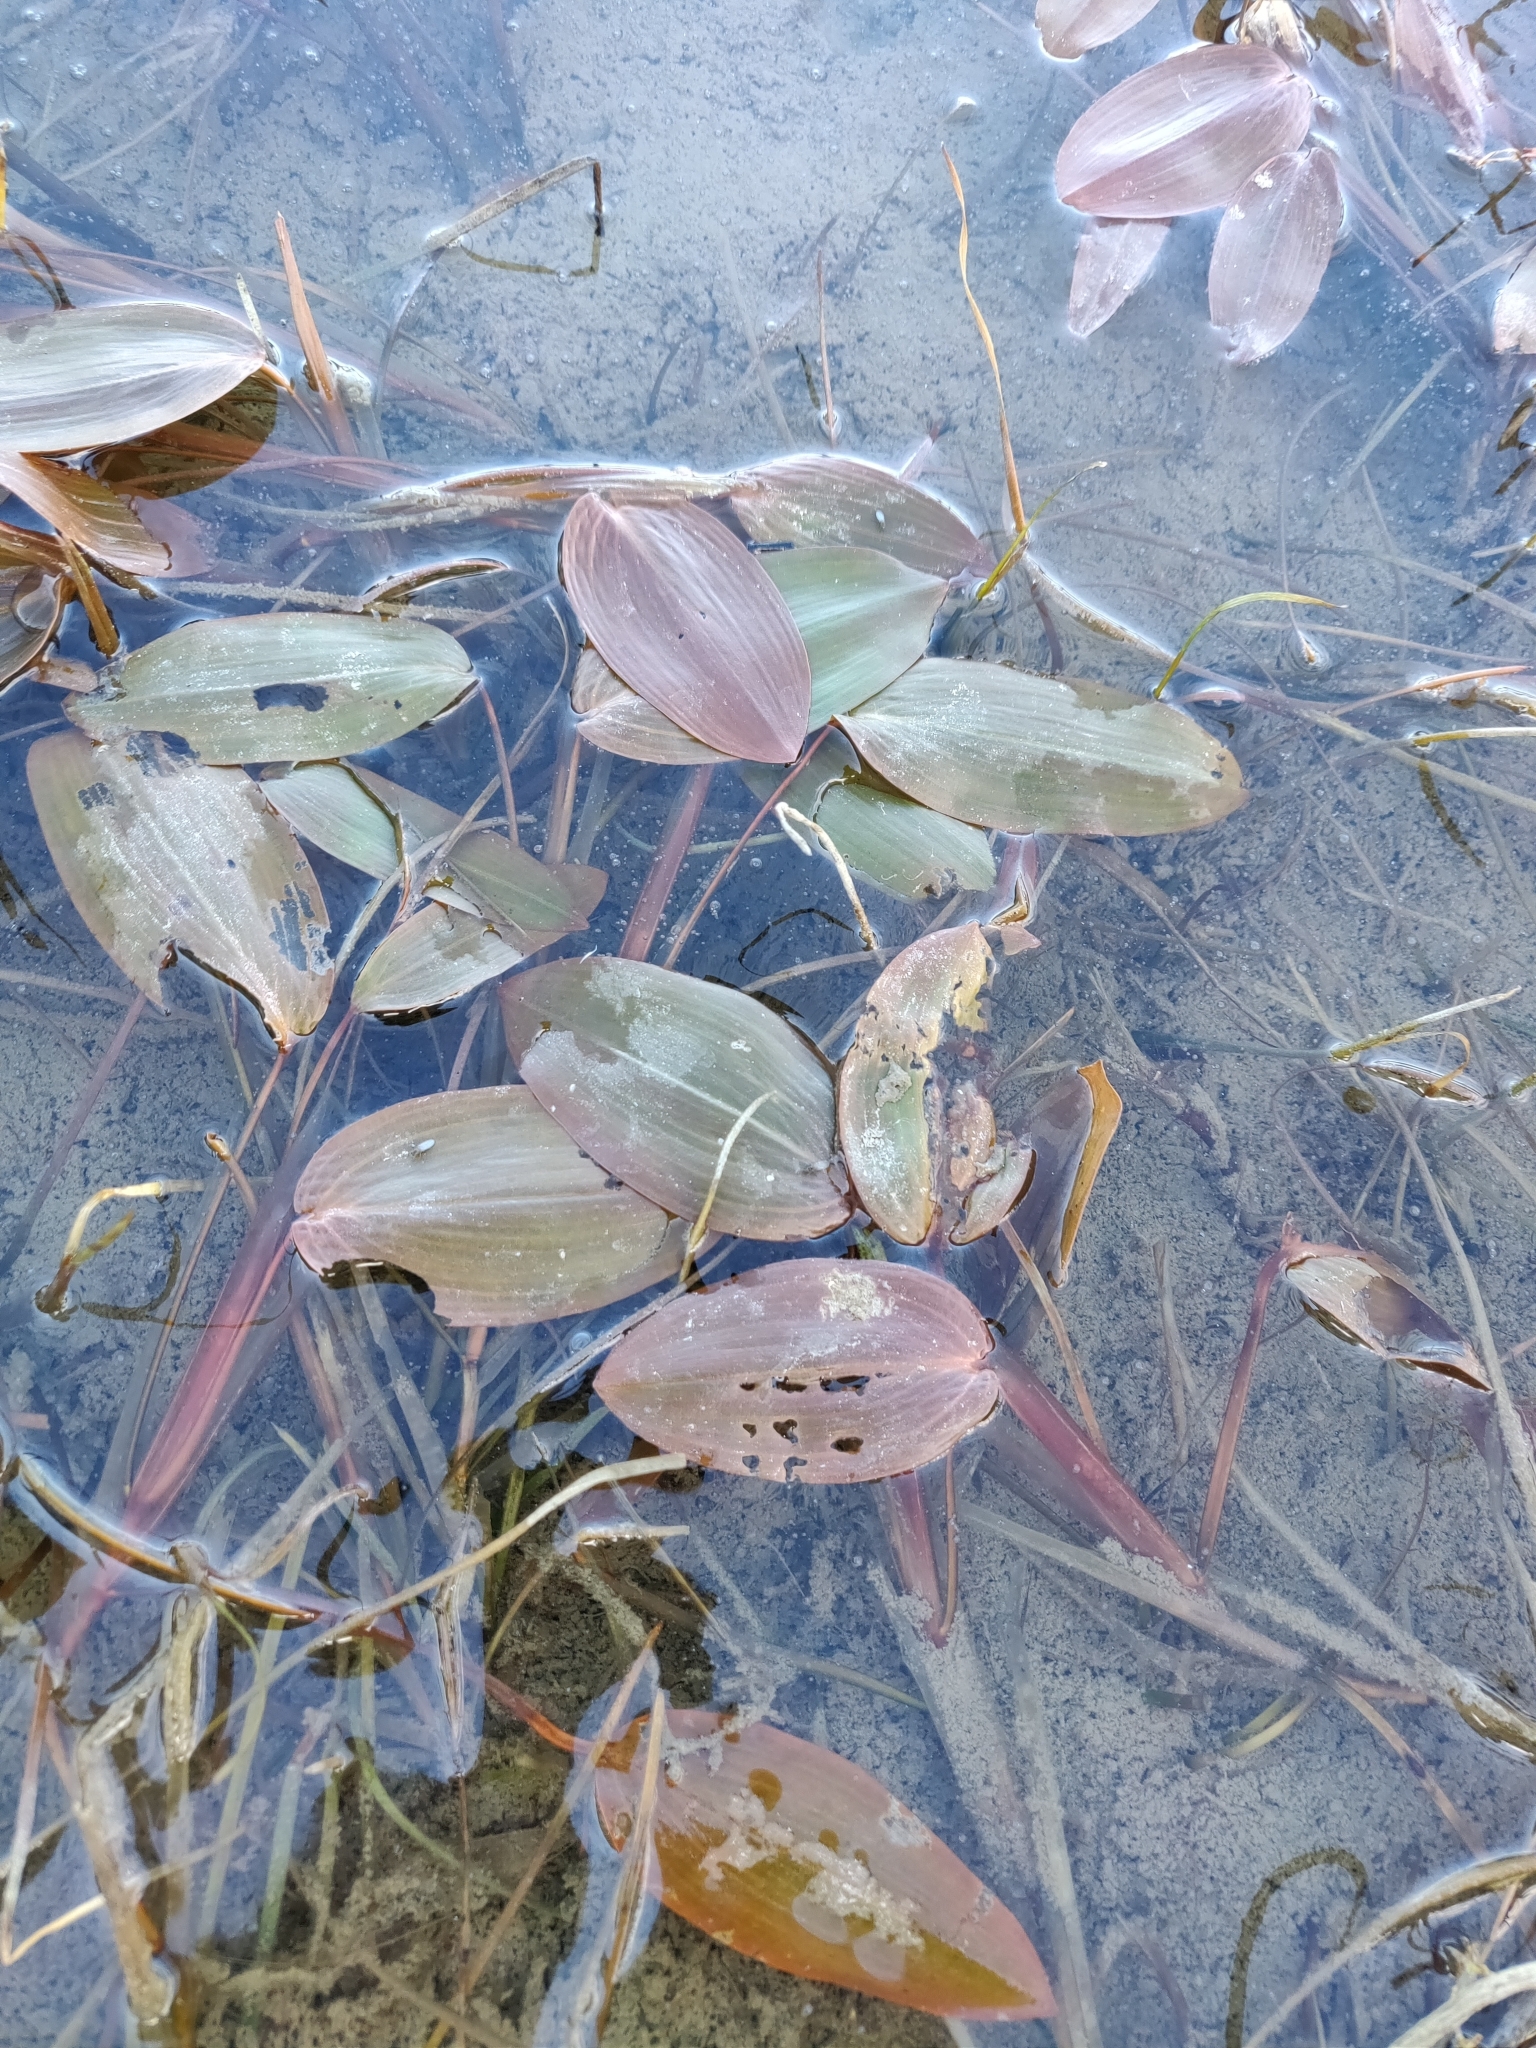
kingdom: Plantae
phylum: Tracheophyta
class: Liliopsida
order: Alismatales
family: Potamogetonaceae
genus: Potamogeton
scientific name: Potamogeton natans
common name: Broad-leaved pondweed
